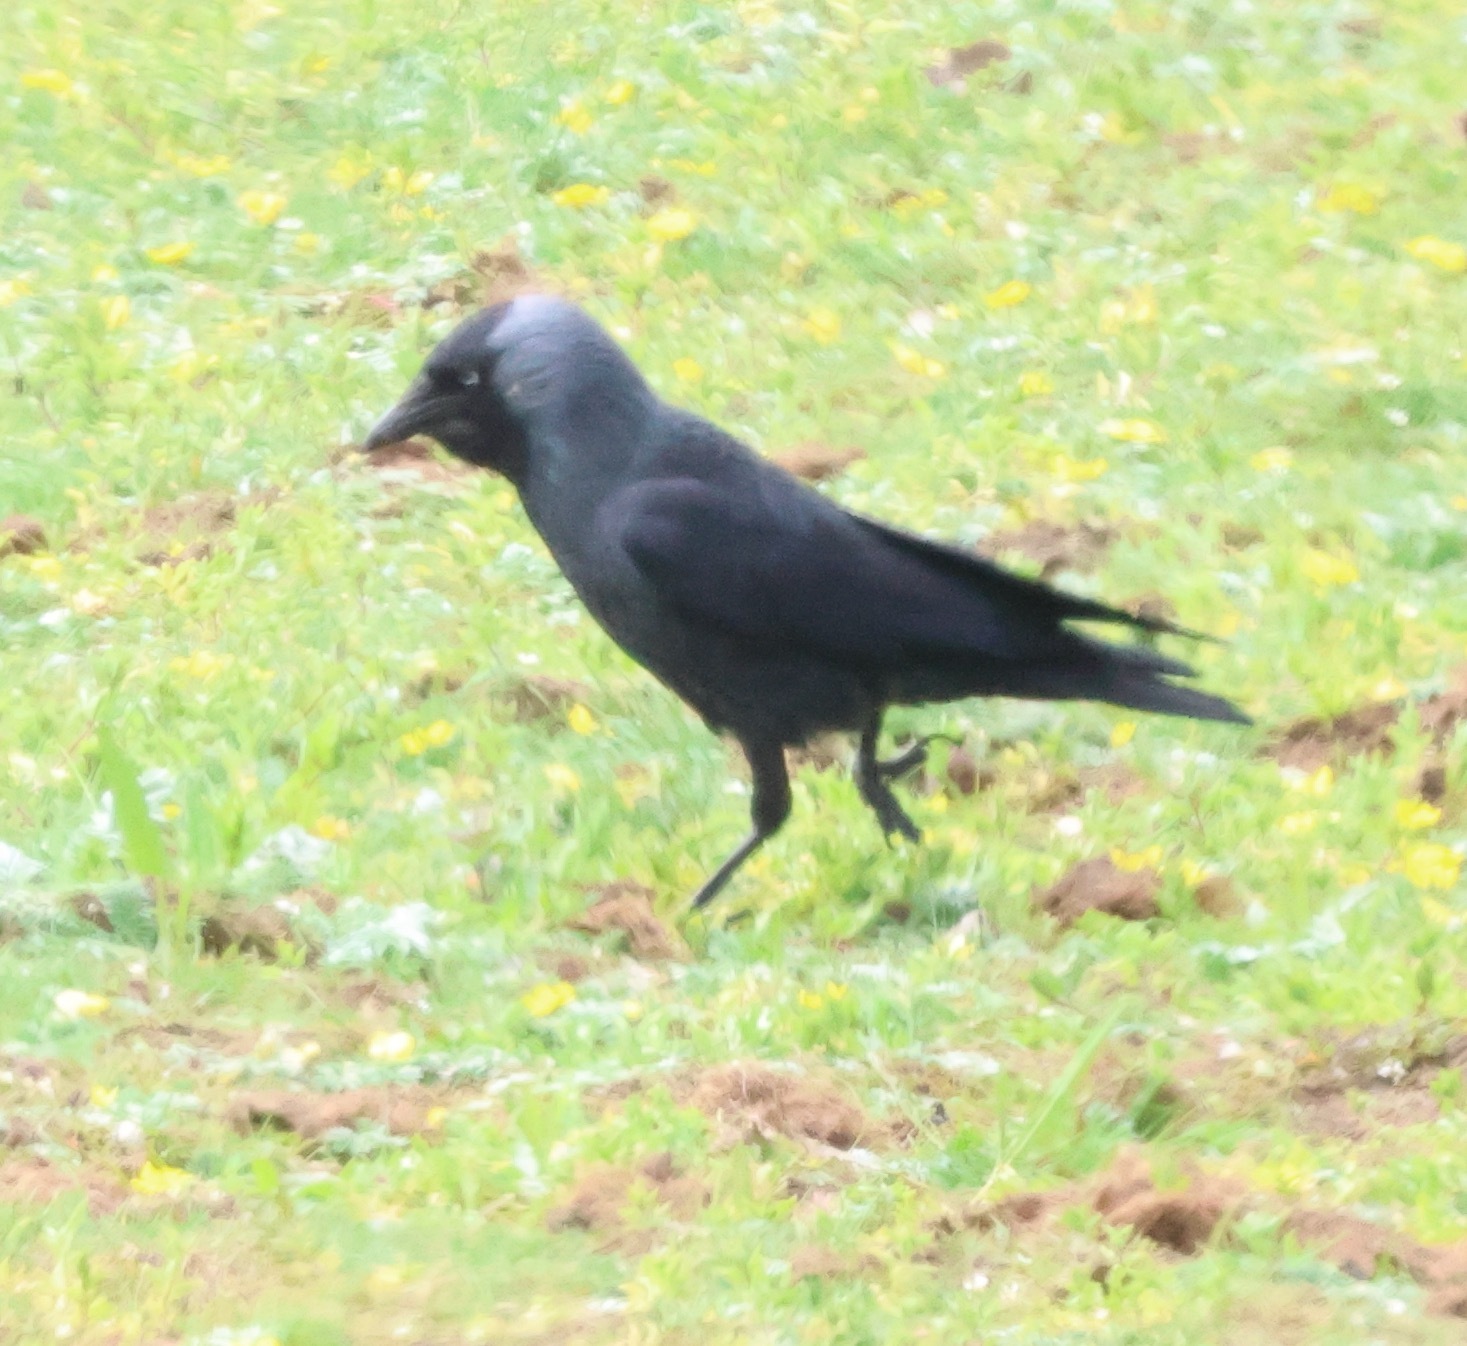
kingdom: Animalia
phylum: Chordata
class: Aves
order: Passeriformes
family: Corvidae
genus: Coloeus
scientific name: Coloeus monedula
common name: Western jackdaw
